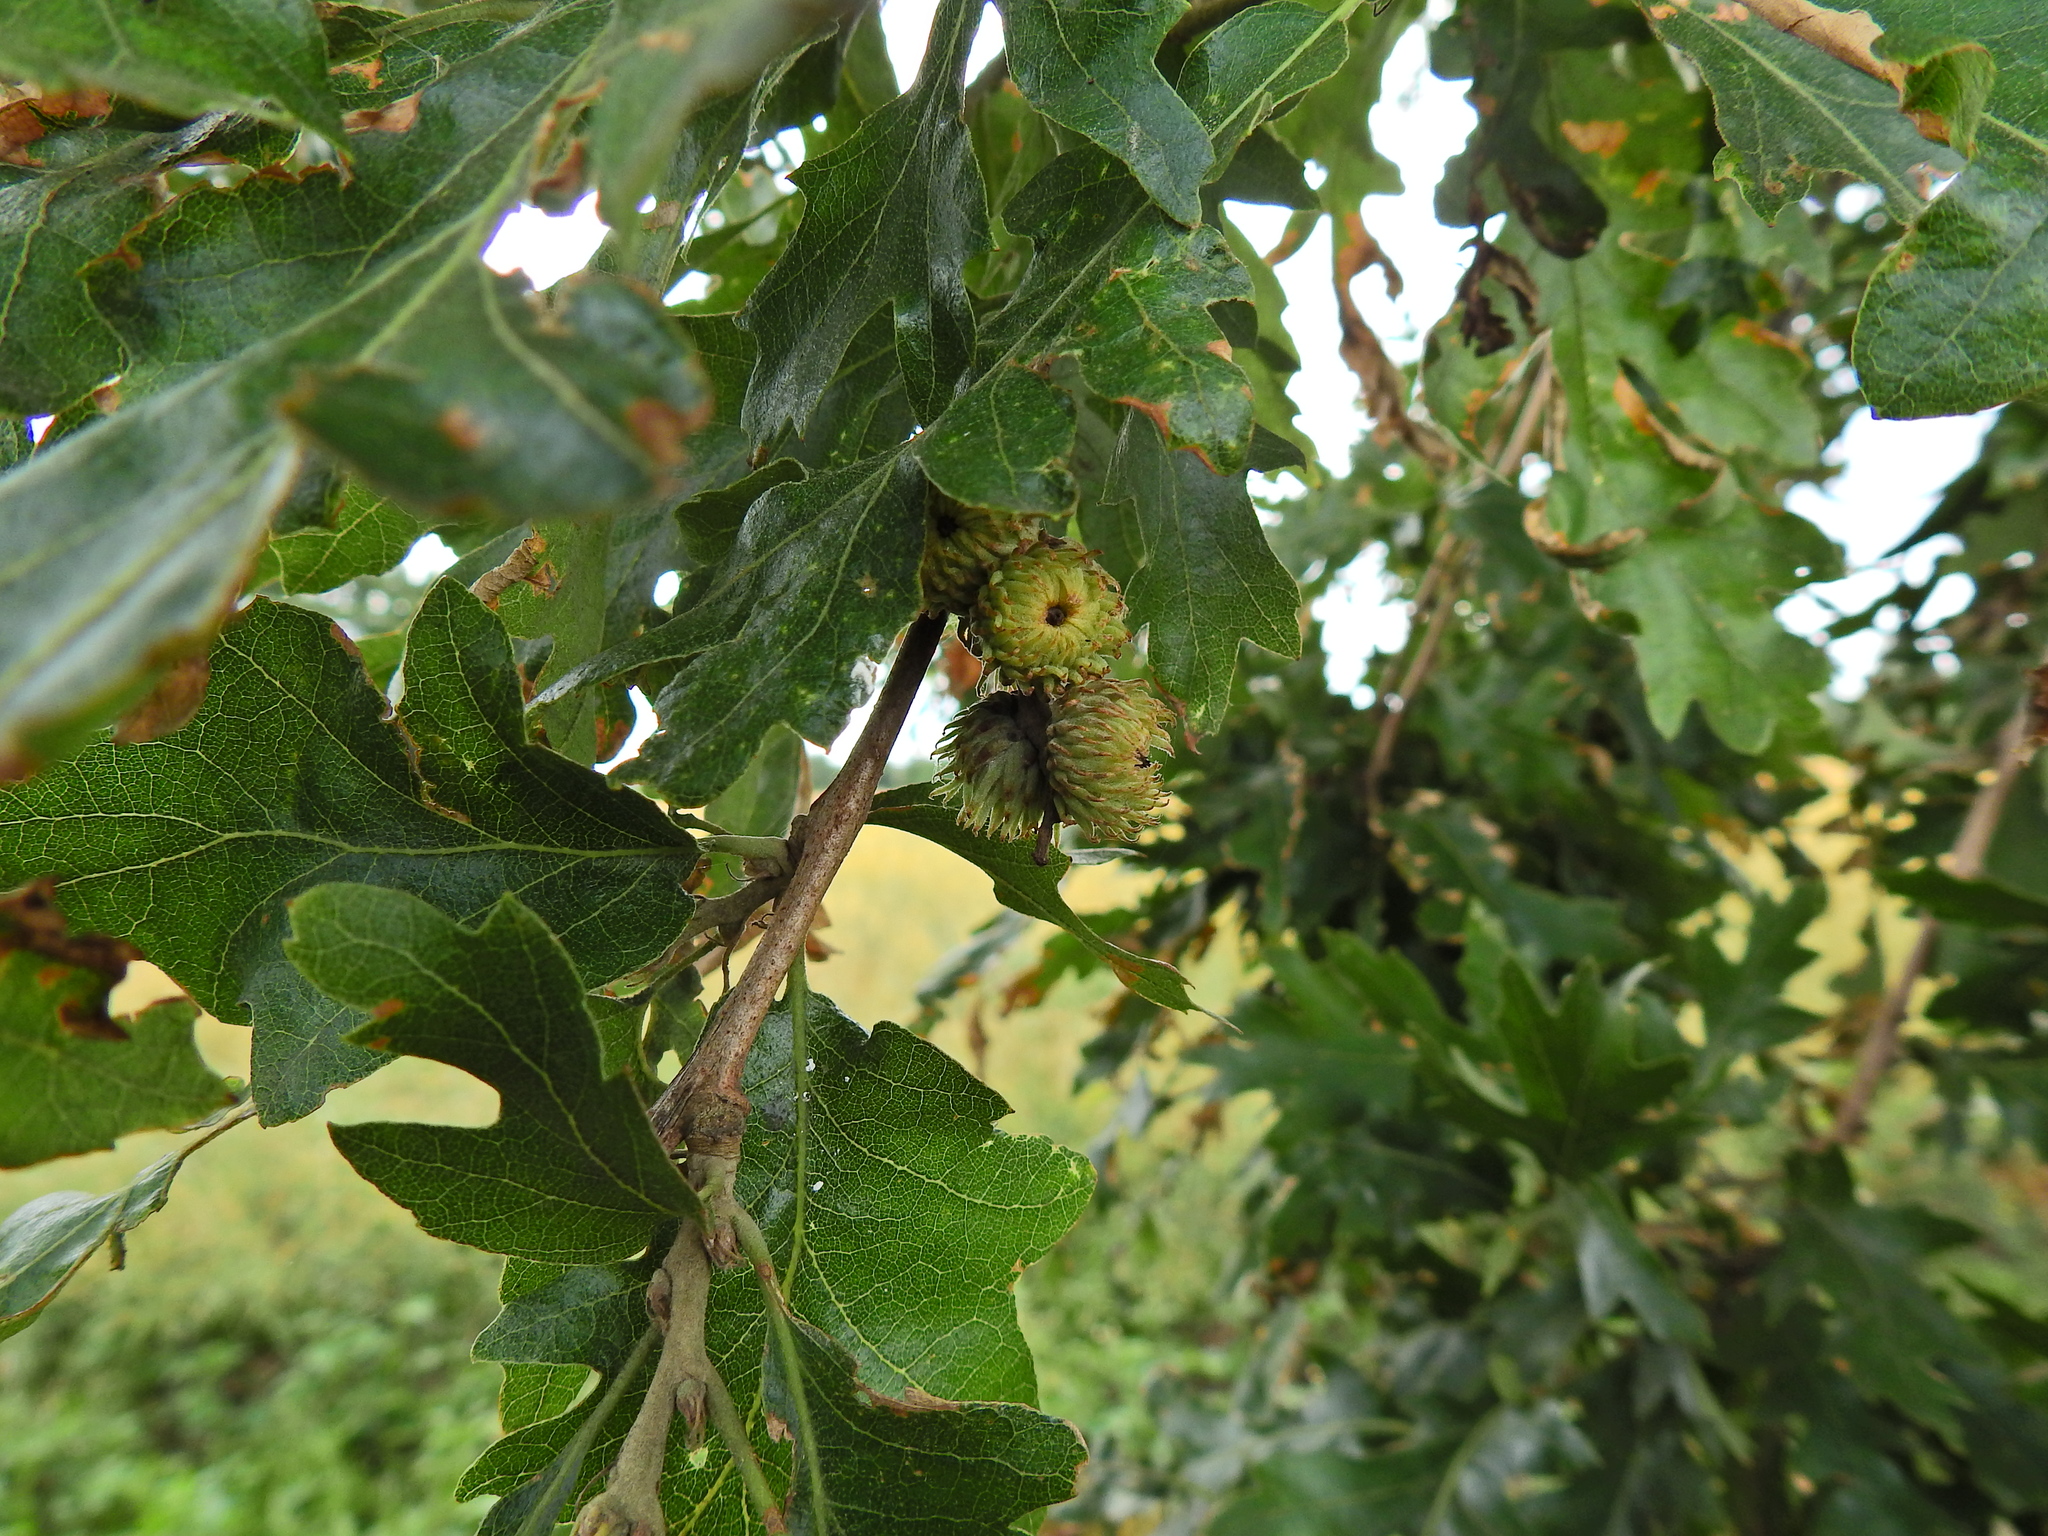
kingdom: Plantae
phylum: Tracheophyta
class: Magnoliopsida
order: Fagales
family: Fagaceae
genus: Quercus
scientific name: Quercus cerris
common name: Turkey oak
